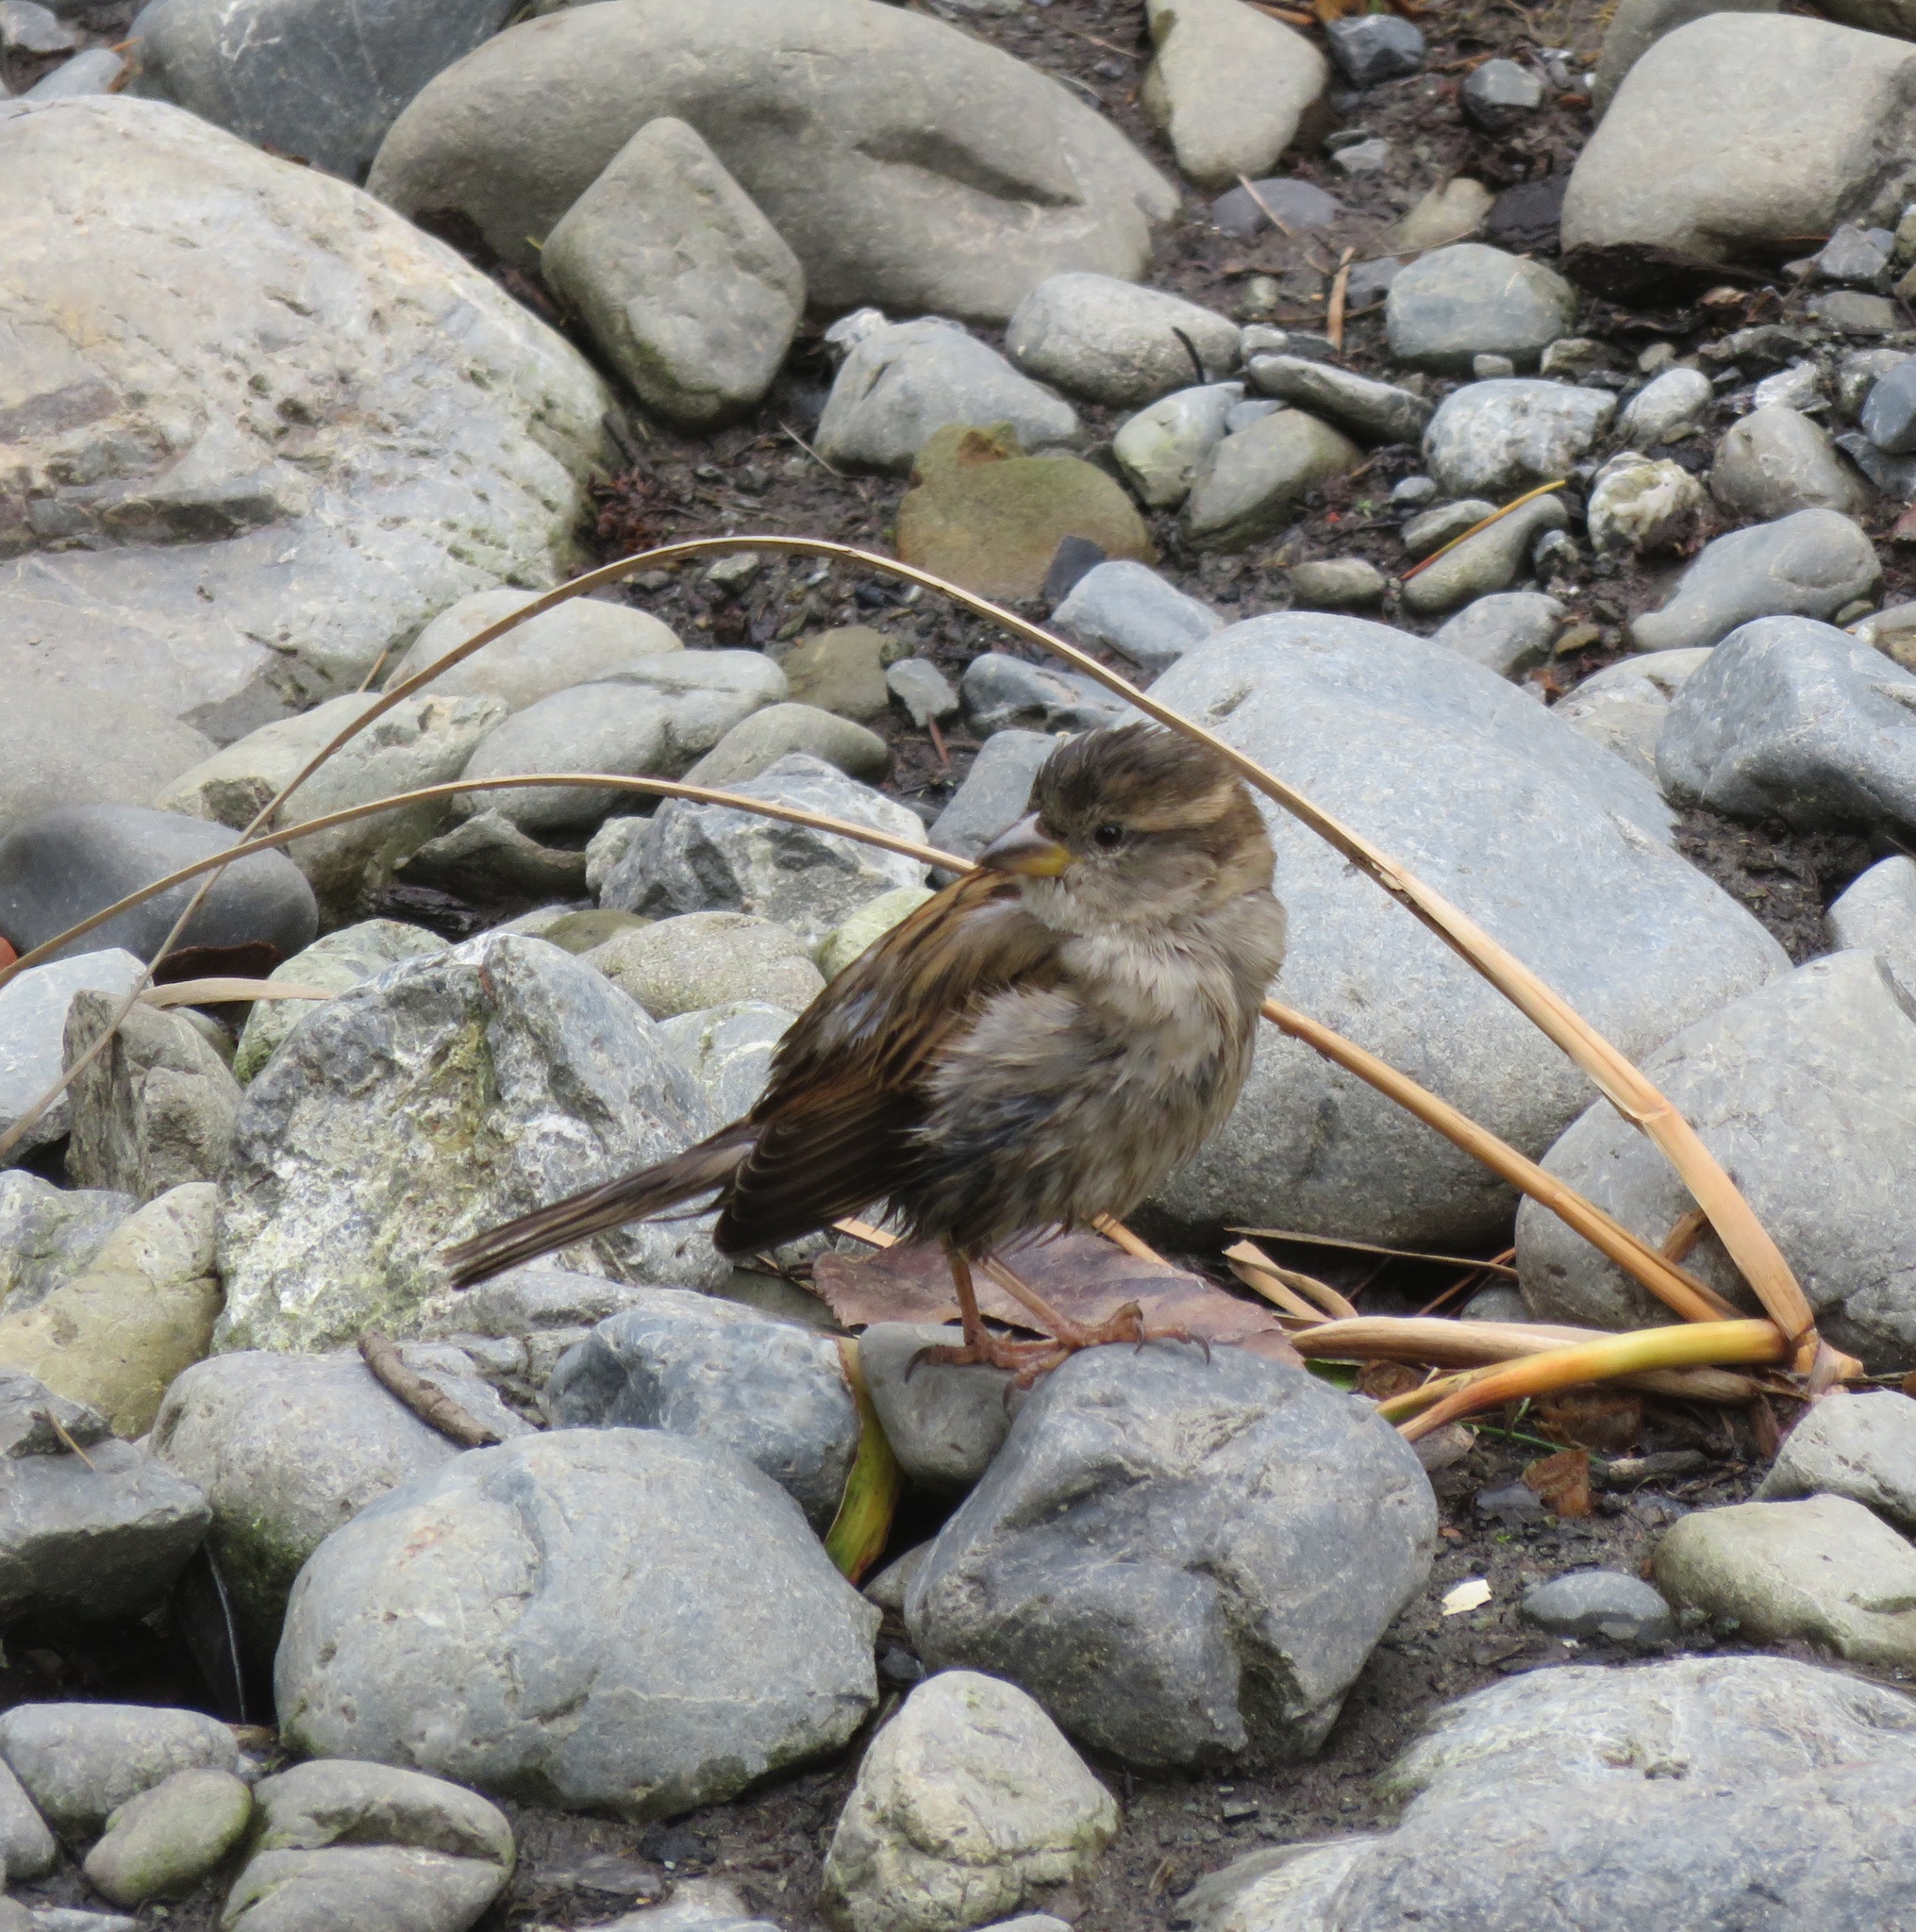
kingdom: Animalia
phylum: Chordata
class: Aves
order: Passeriformes
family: Passeridae
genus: Passer
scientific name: Passer domesticus
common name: House sparrow
